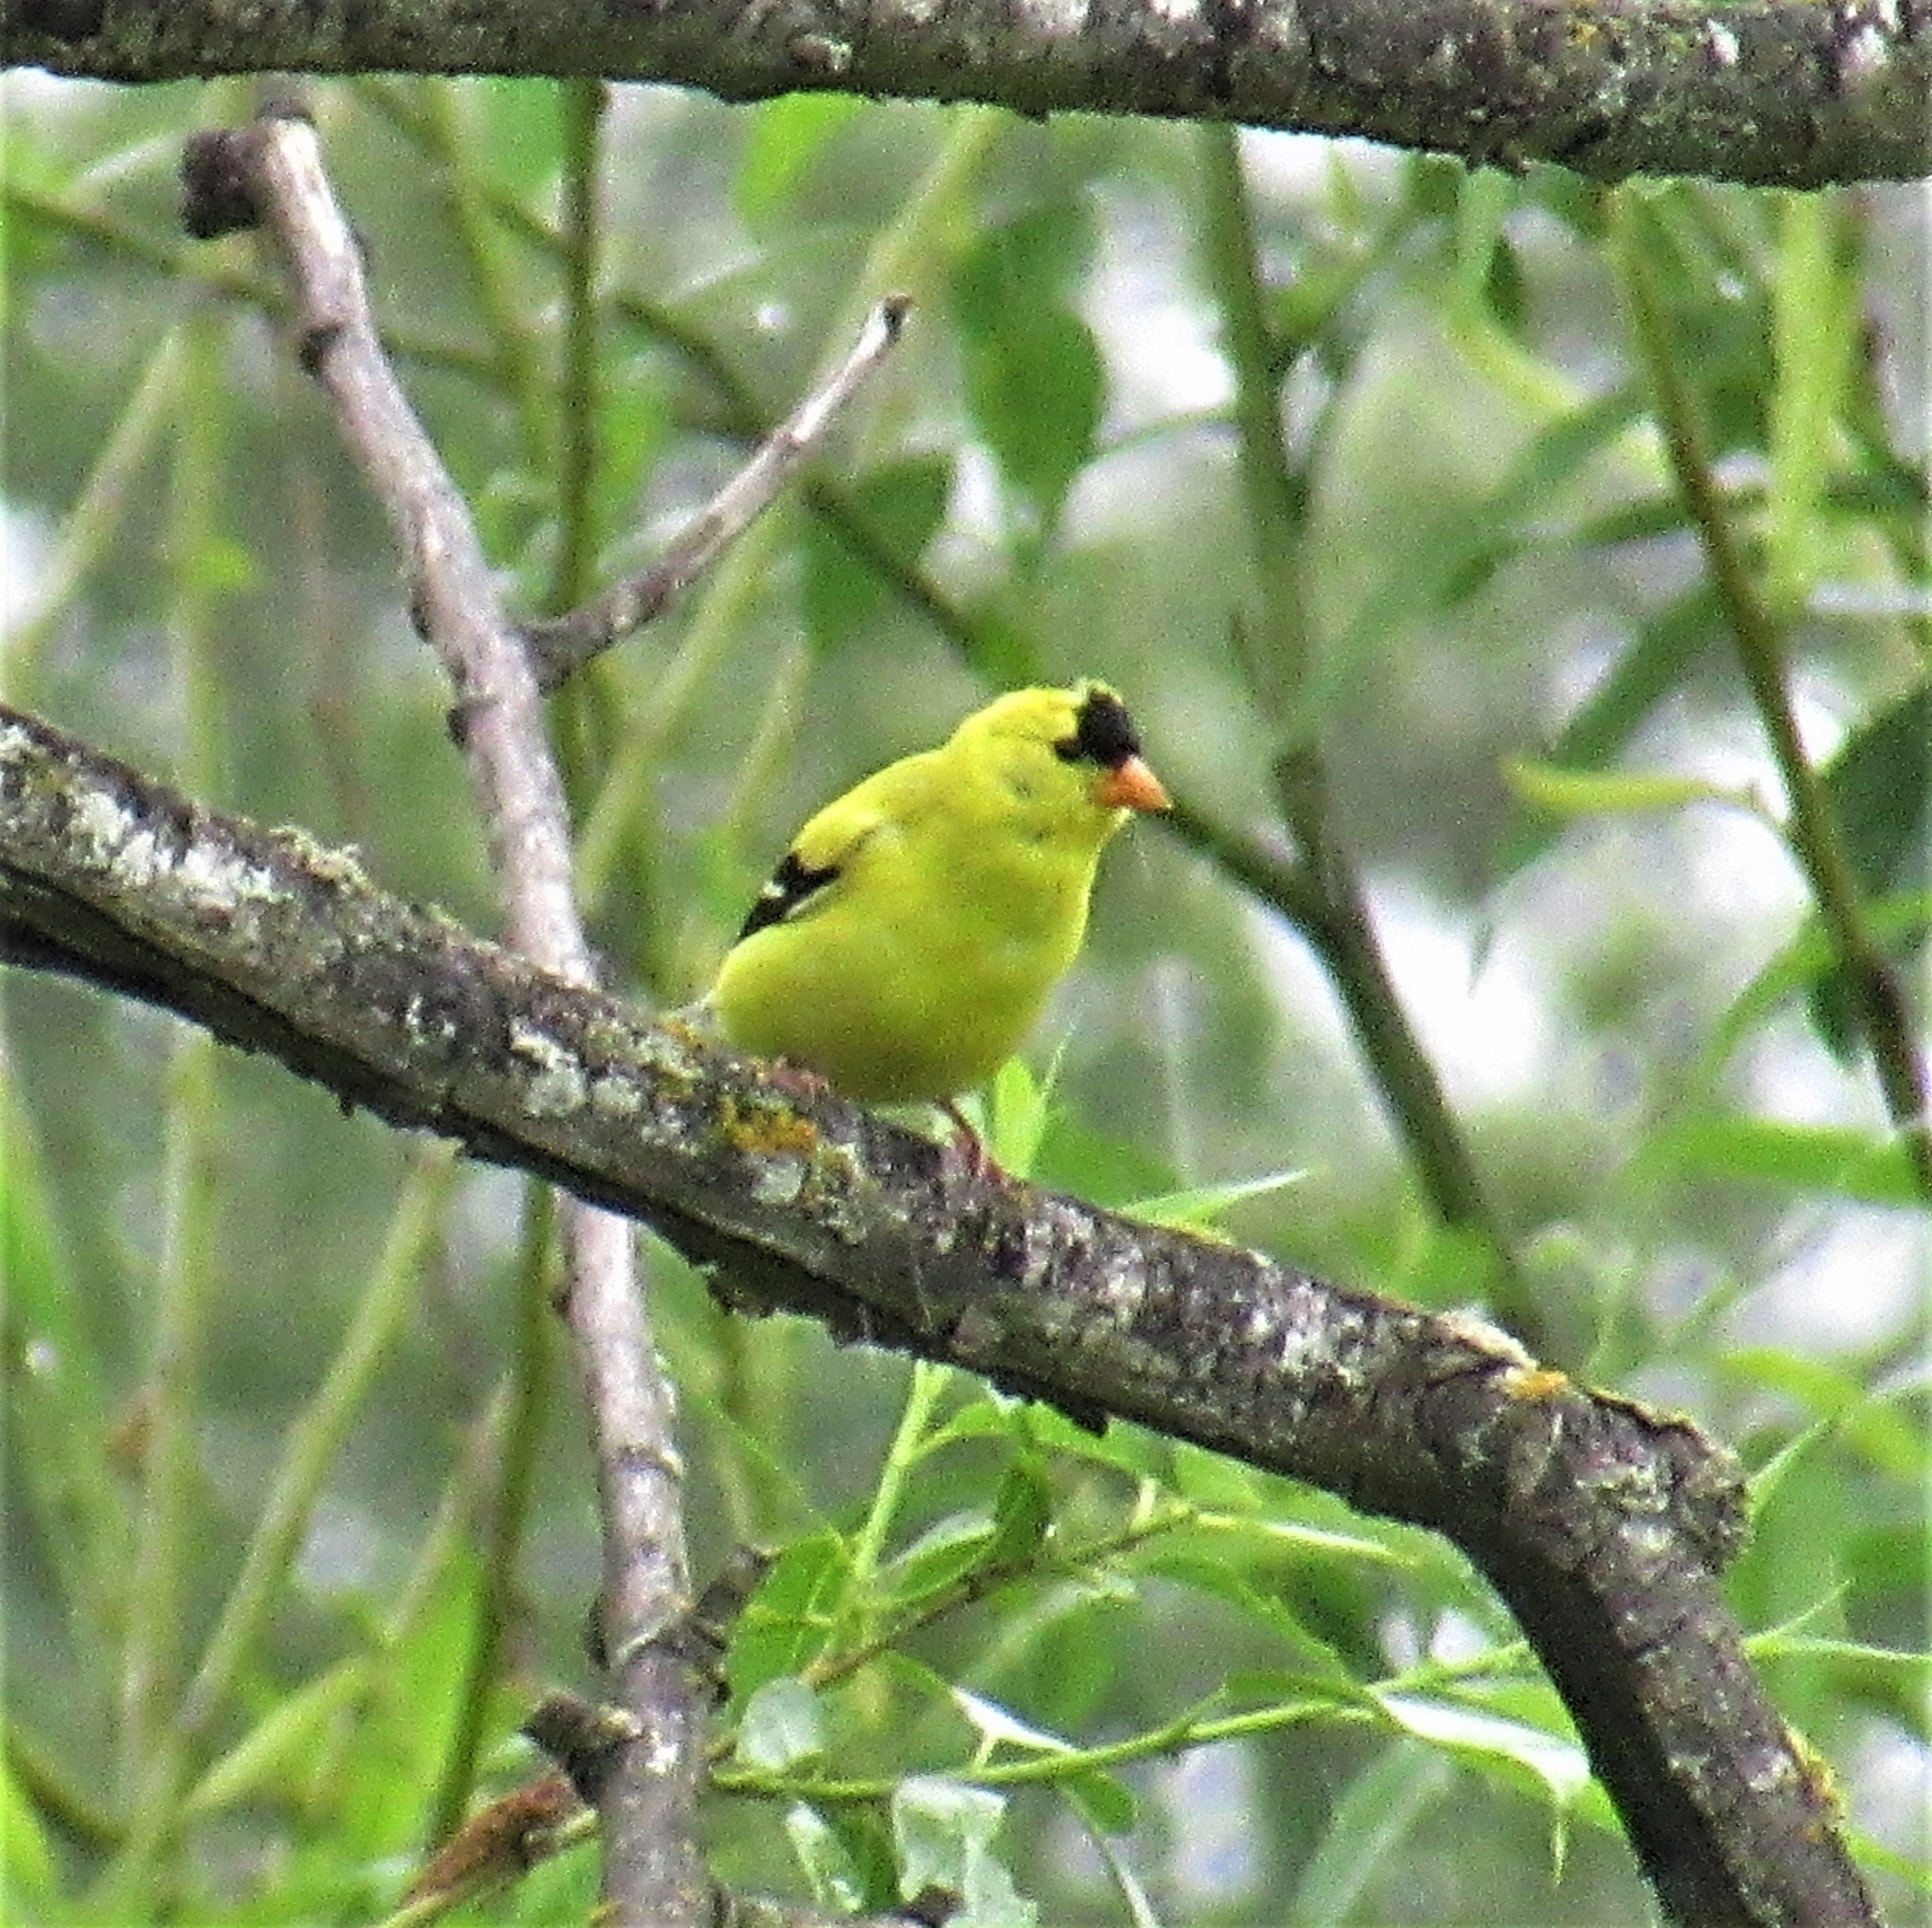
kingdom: Animalia
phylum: Chordata
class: Aves
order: Passeriformes
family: Fringillidae
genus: Spinus
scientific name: Spinus tristis
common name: American goldfinch
